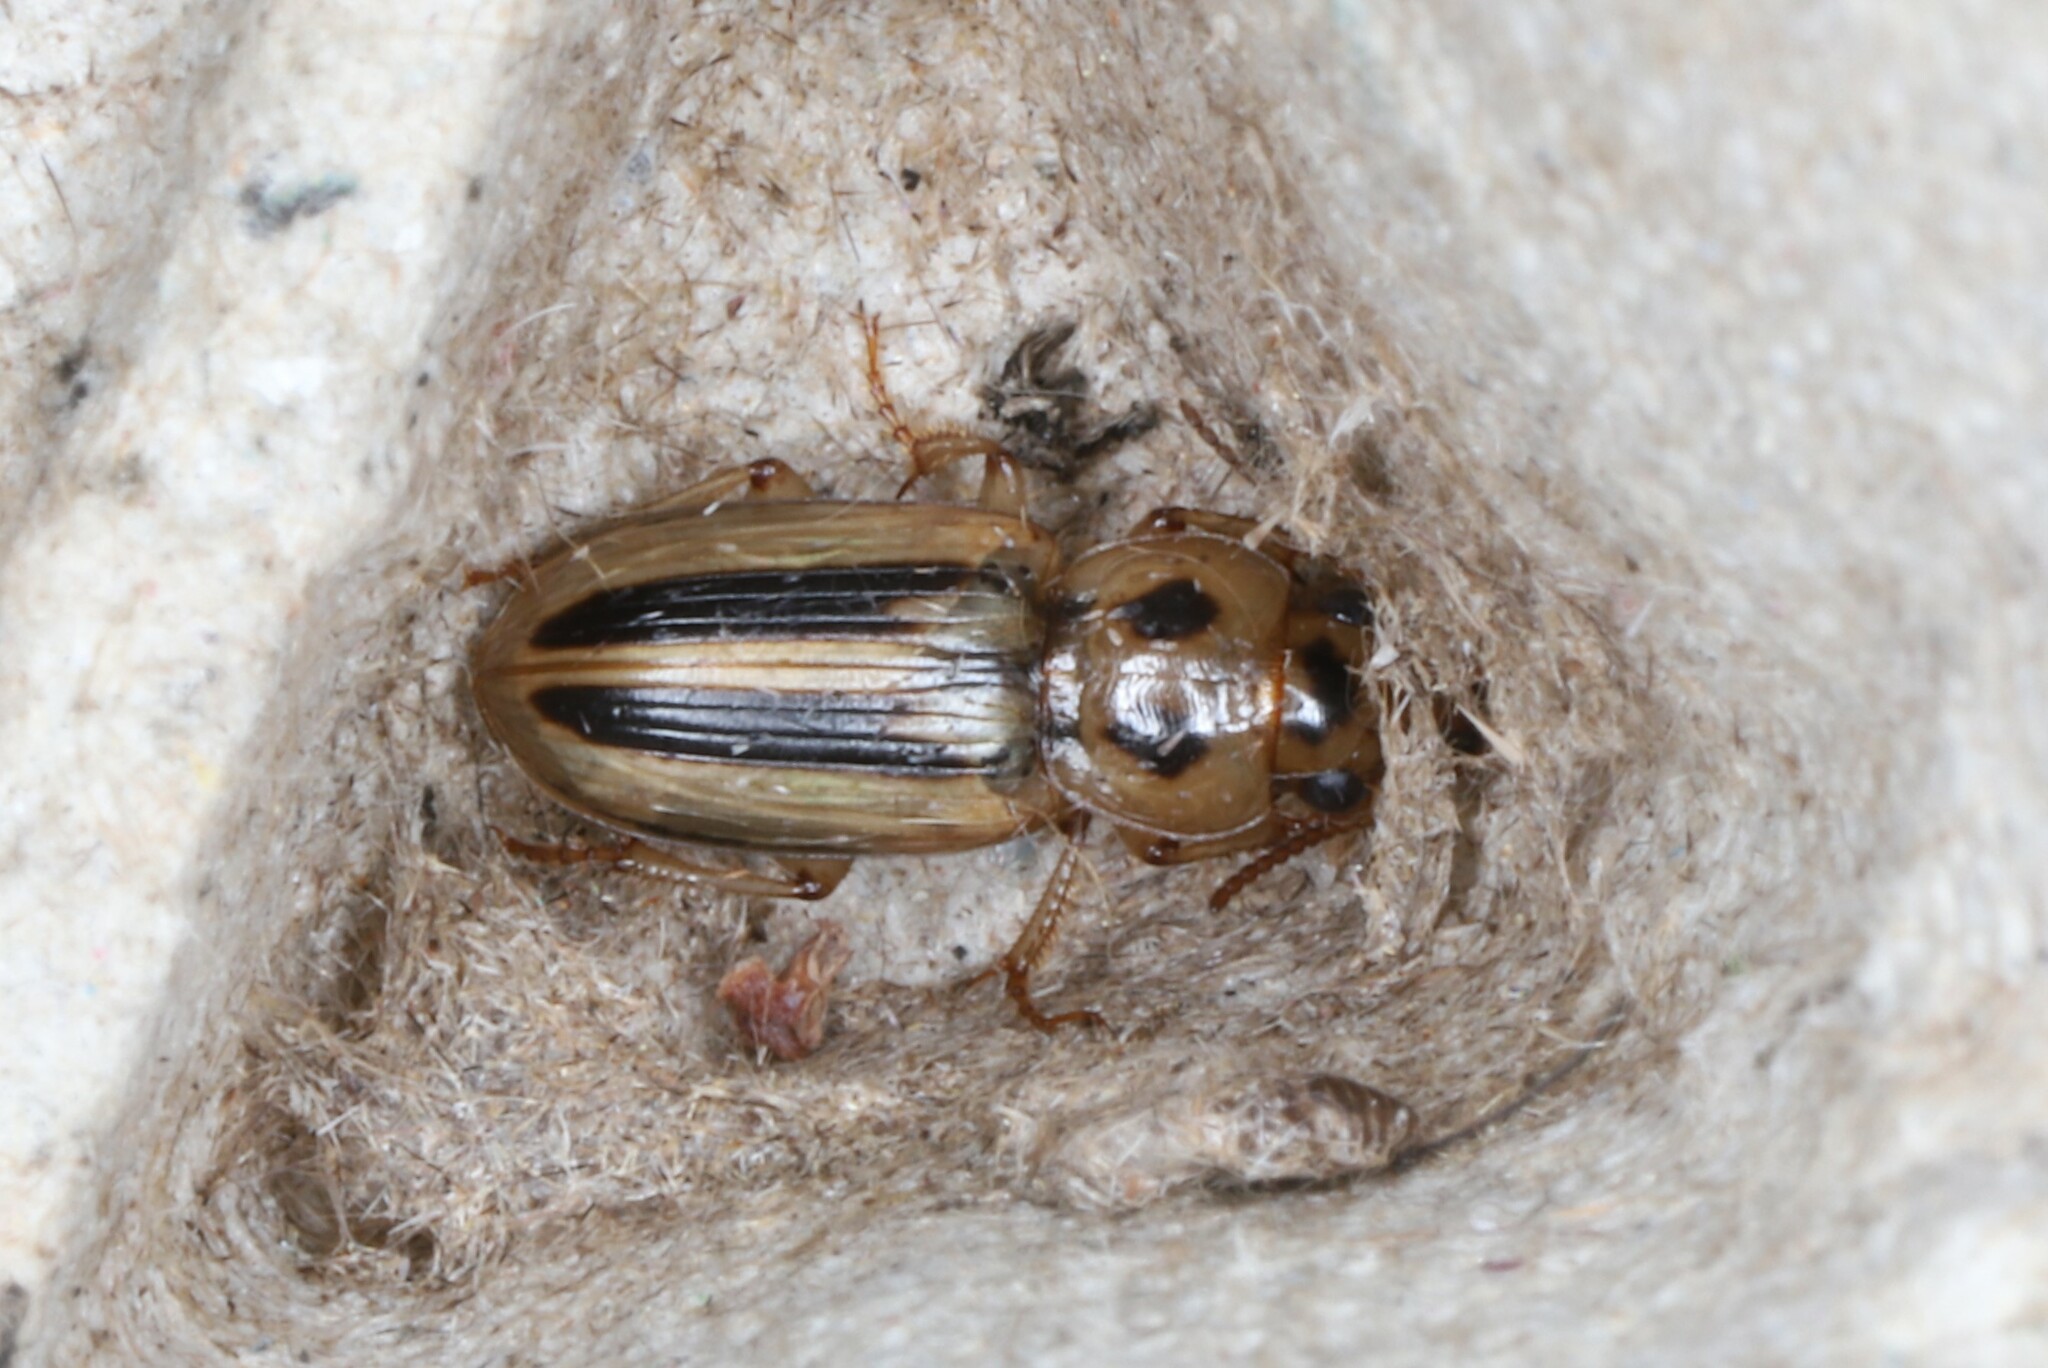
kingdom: Animalia
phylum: Arthropoda
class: Insecta
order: Coleoptera
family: Carabidae
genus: Stenolophus
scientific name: Stenolophus lineola
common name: Lined stenolophus
